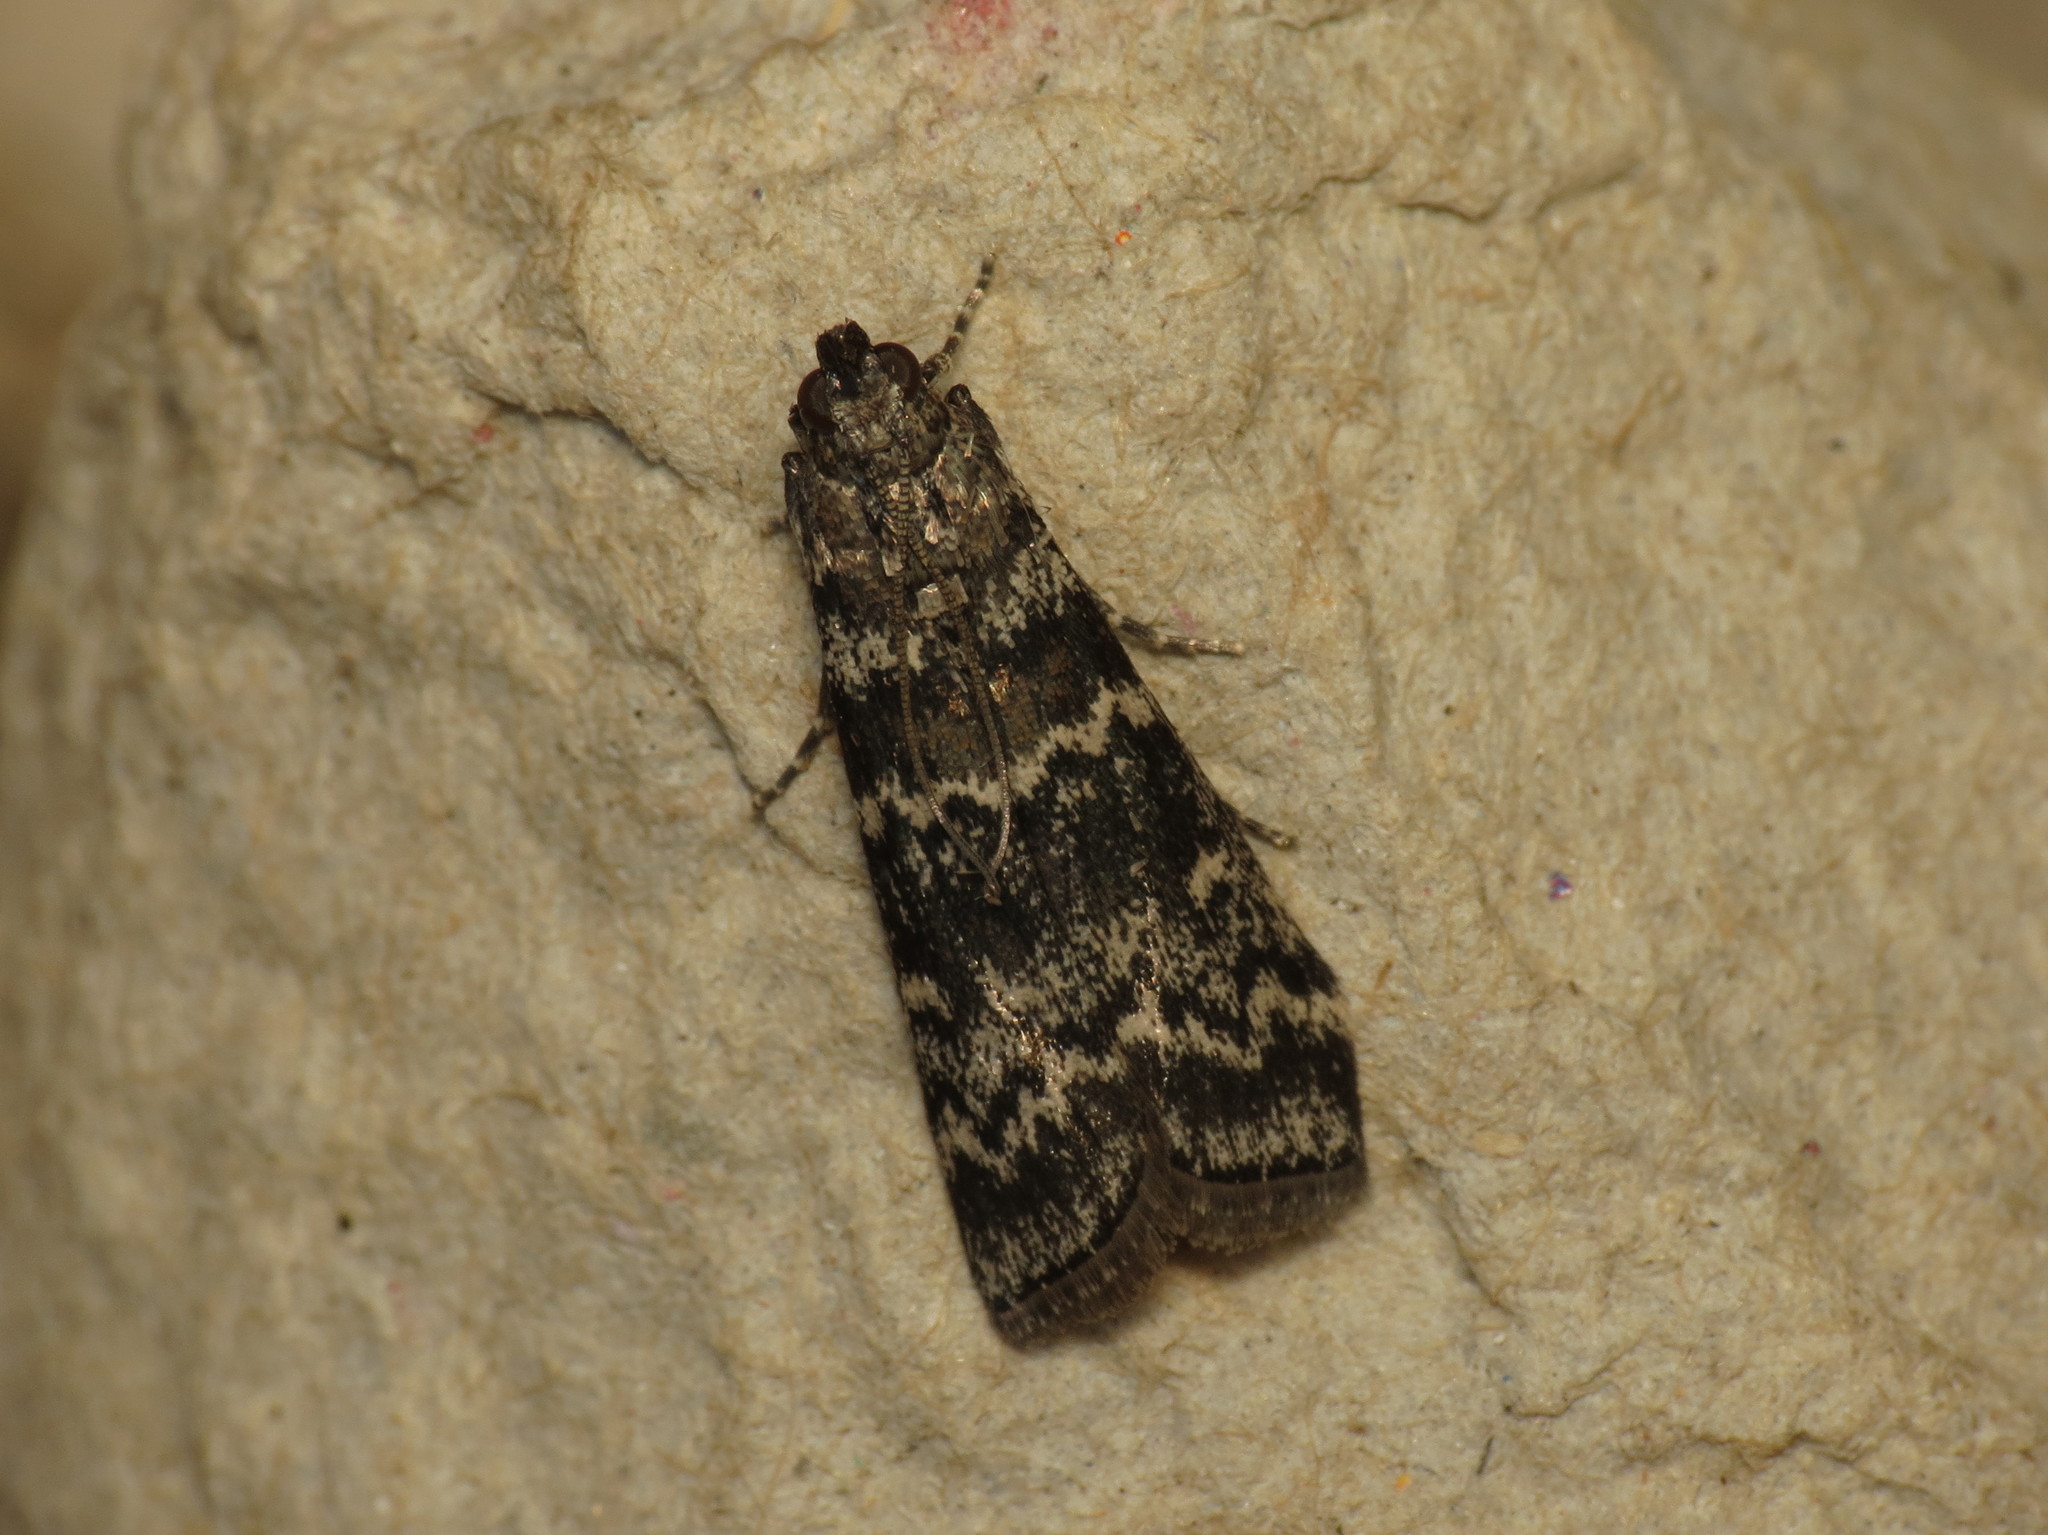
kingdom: Animalia
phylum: Arthropoda
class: Insecta
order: Lepidoptera
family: Pyralidae
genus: Dioryctria
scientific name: Dioryctria abietella
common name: Dark pine knot-horn
